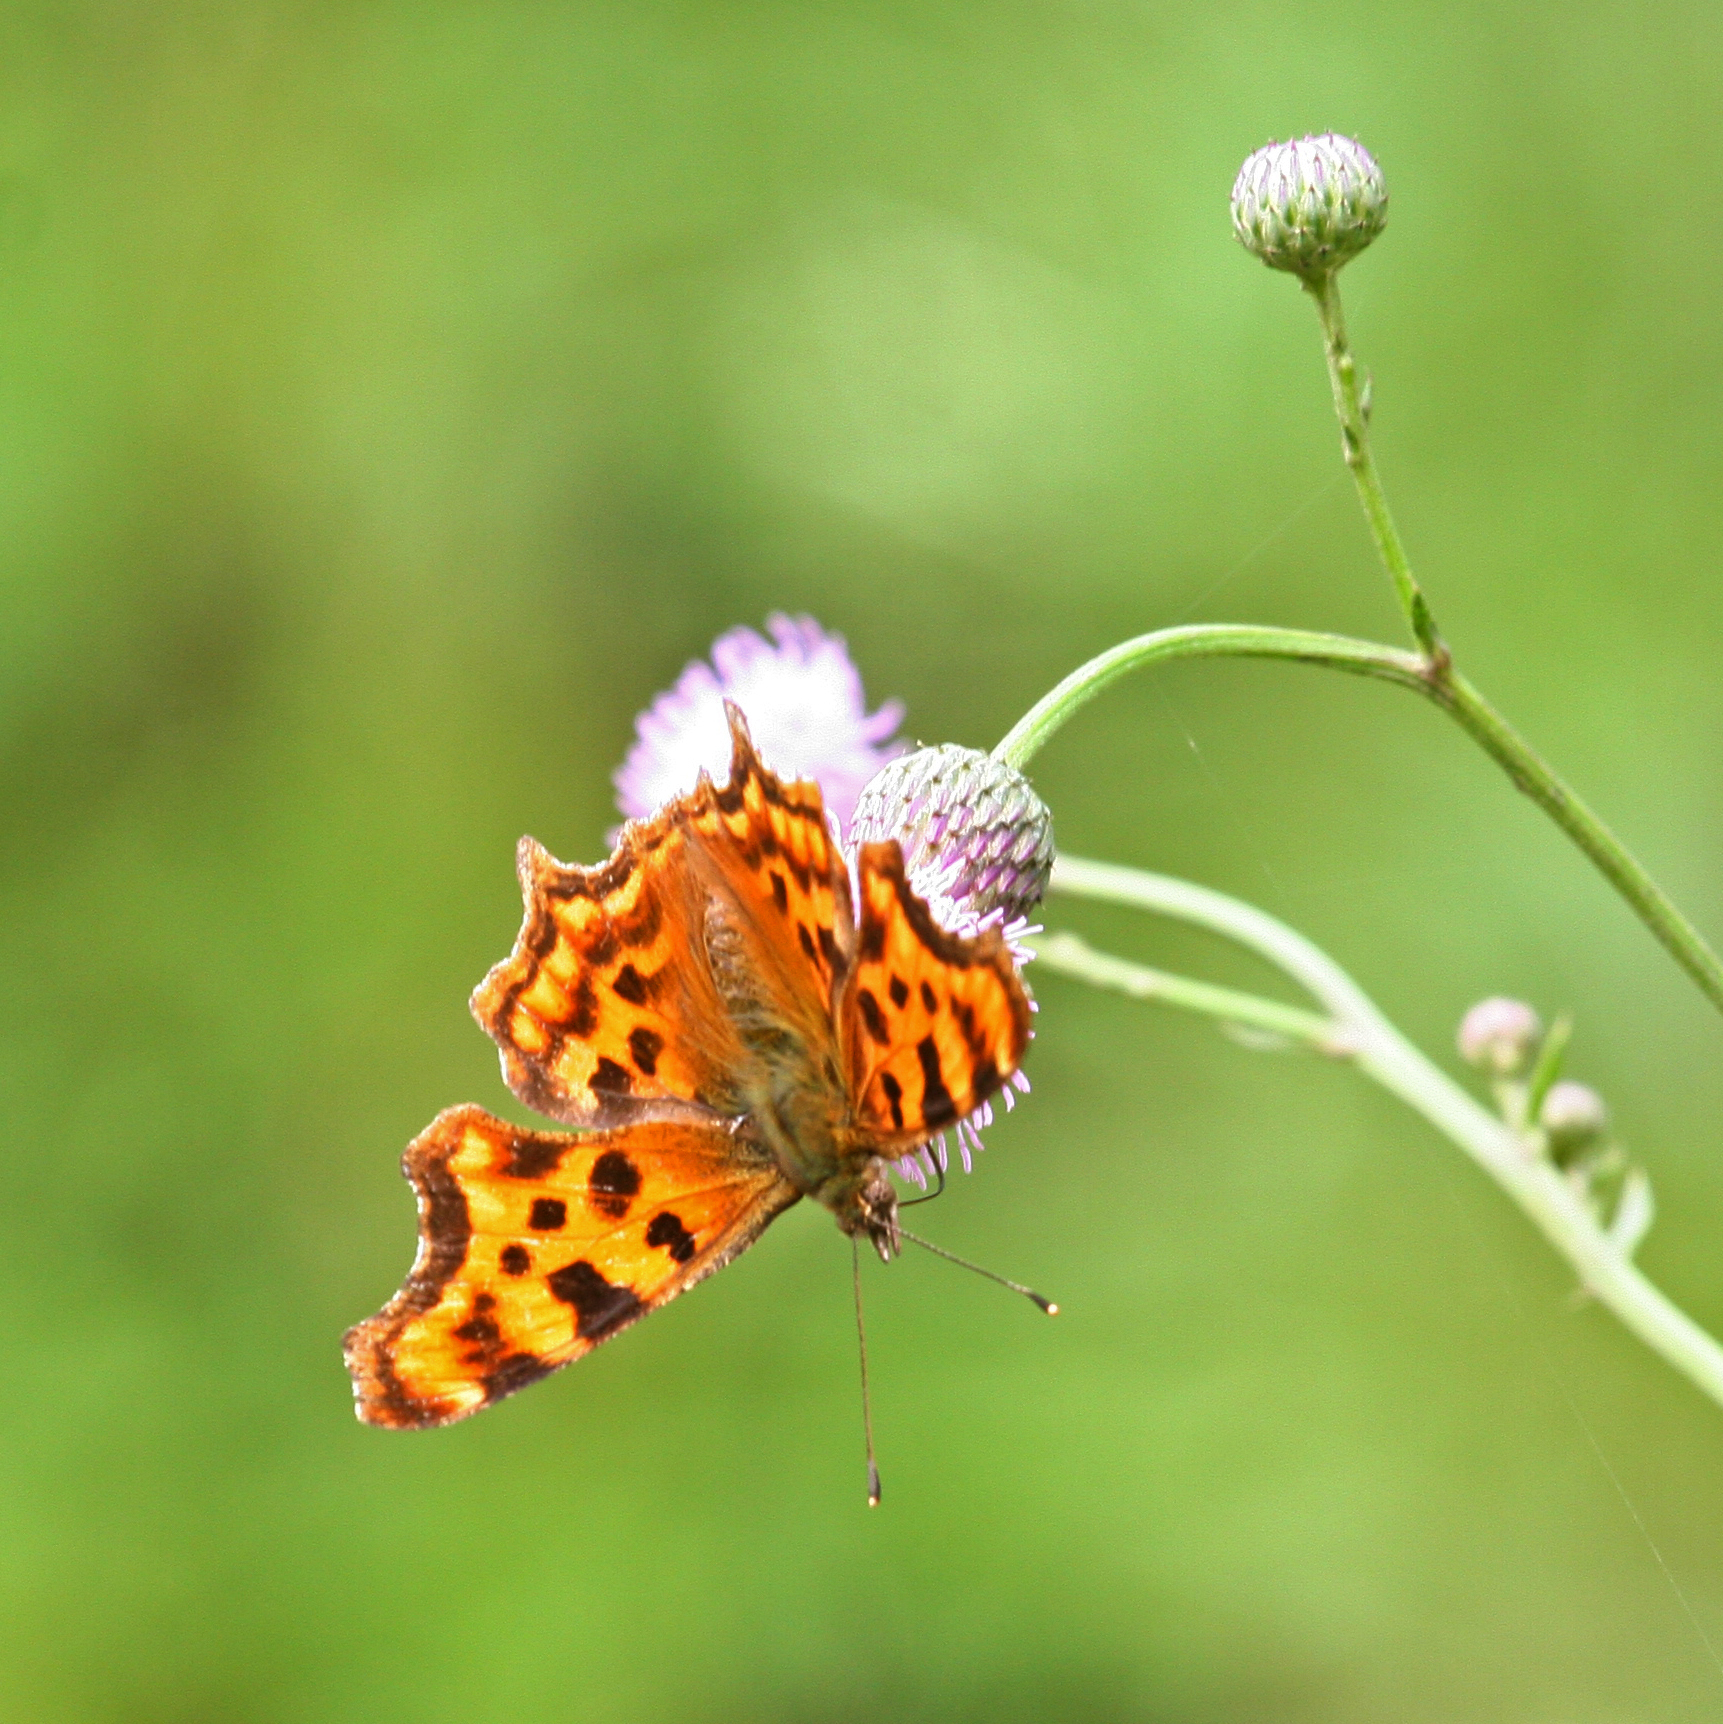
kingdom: Animalia
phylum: Arthropoda
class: Insecta
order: Lepidoptera
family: Nymphalidae
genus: Polygonia
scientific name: Polygonia c-album
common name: Comma
